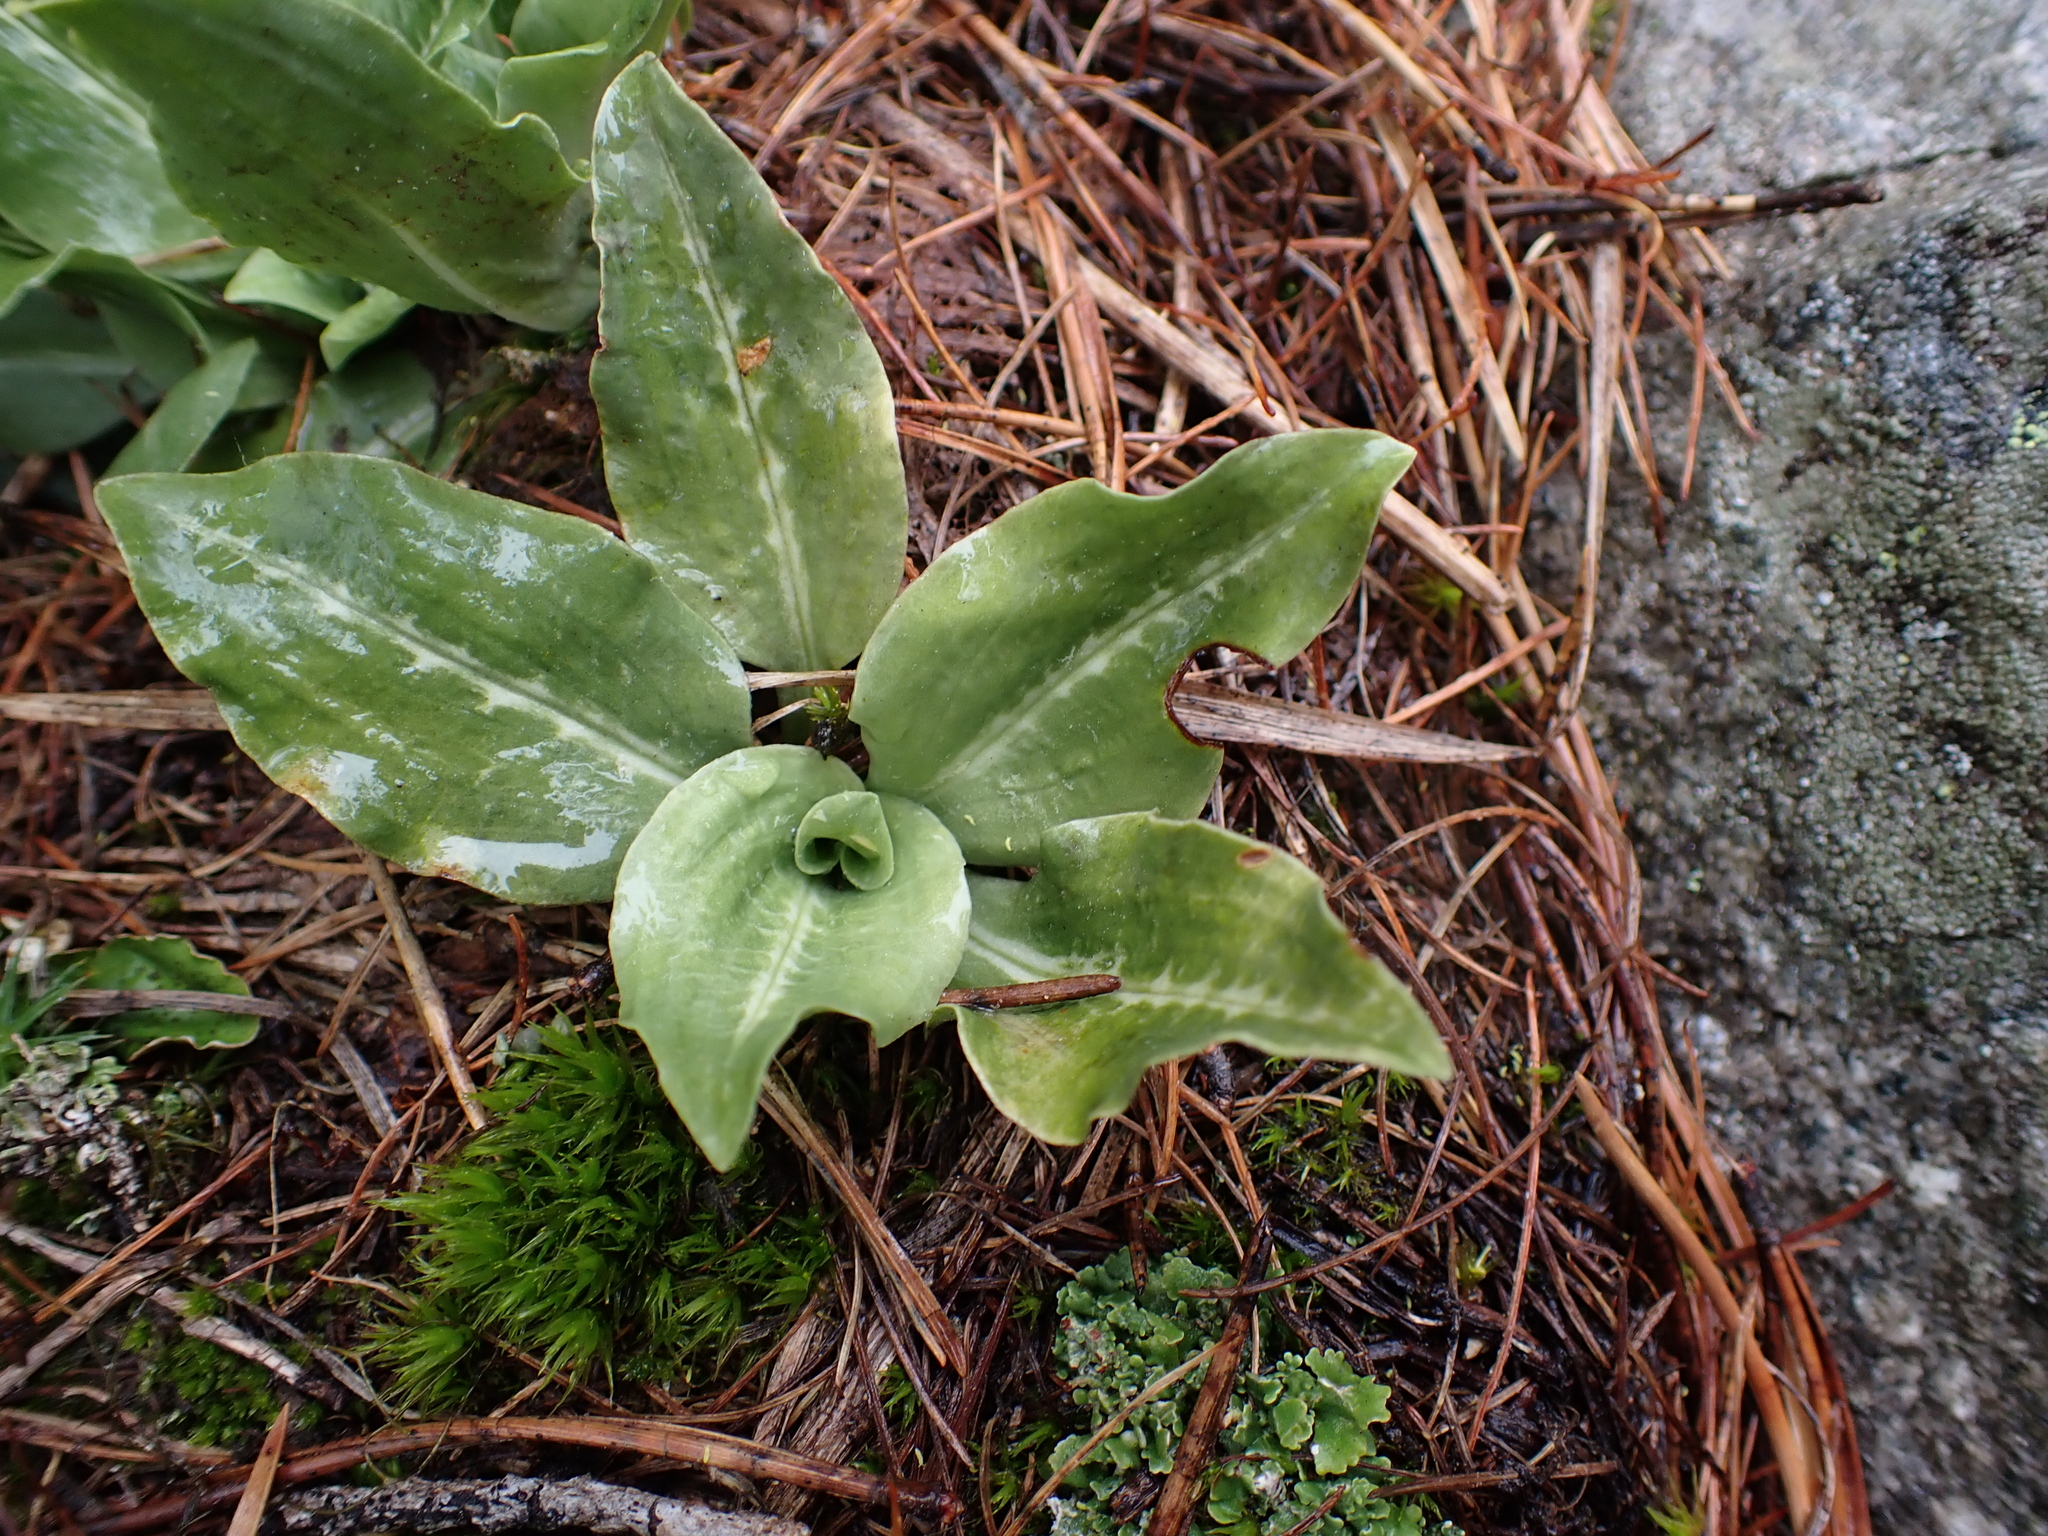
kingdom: Plantae
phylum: Tracheophyta
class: Liliopsida
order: Asparagales
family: Orchidaceae
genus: Goodyera
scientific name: Goodyera oblongifolia
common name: Giant rattlesnake-plantain
